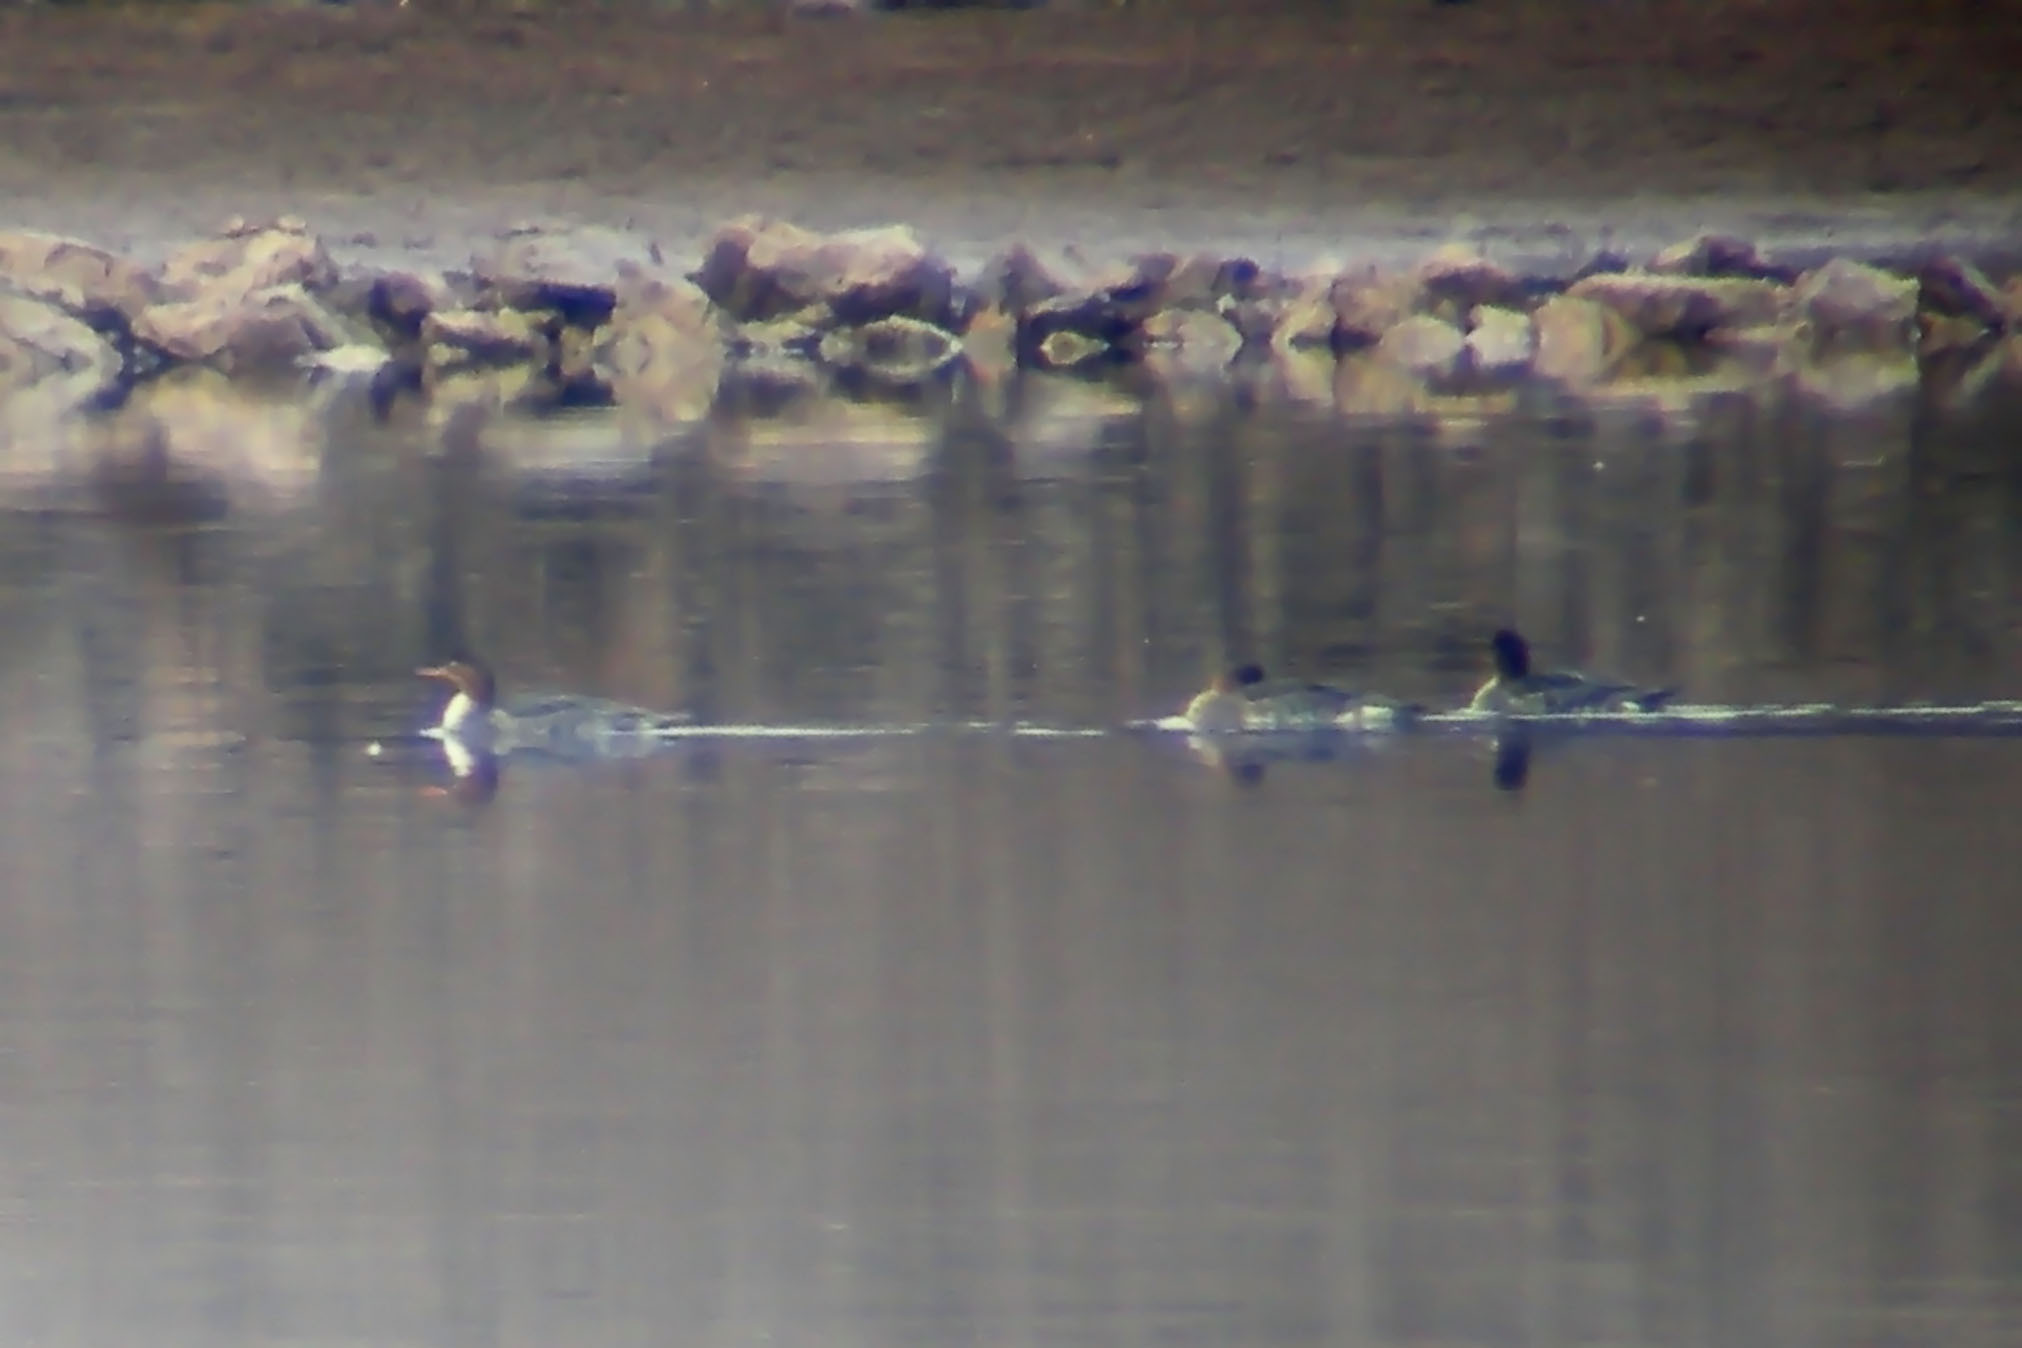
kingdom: Animalia
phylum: Chordata
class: Aves
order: Anseriformes
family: Anatidae
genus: Mergus
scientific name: Mergus merganser
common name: Common merganser
